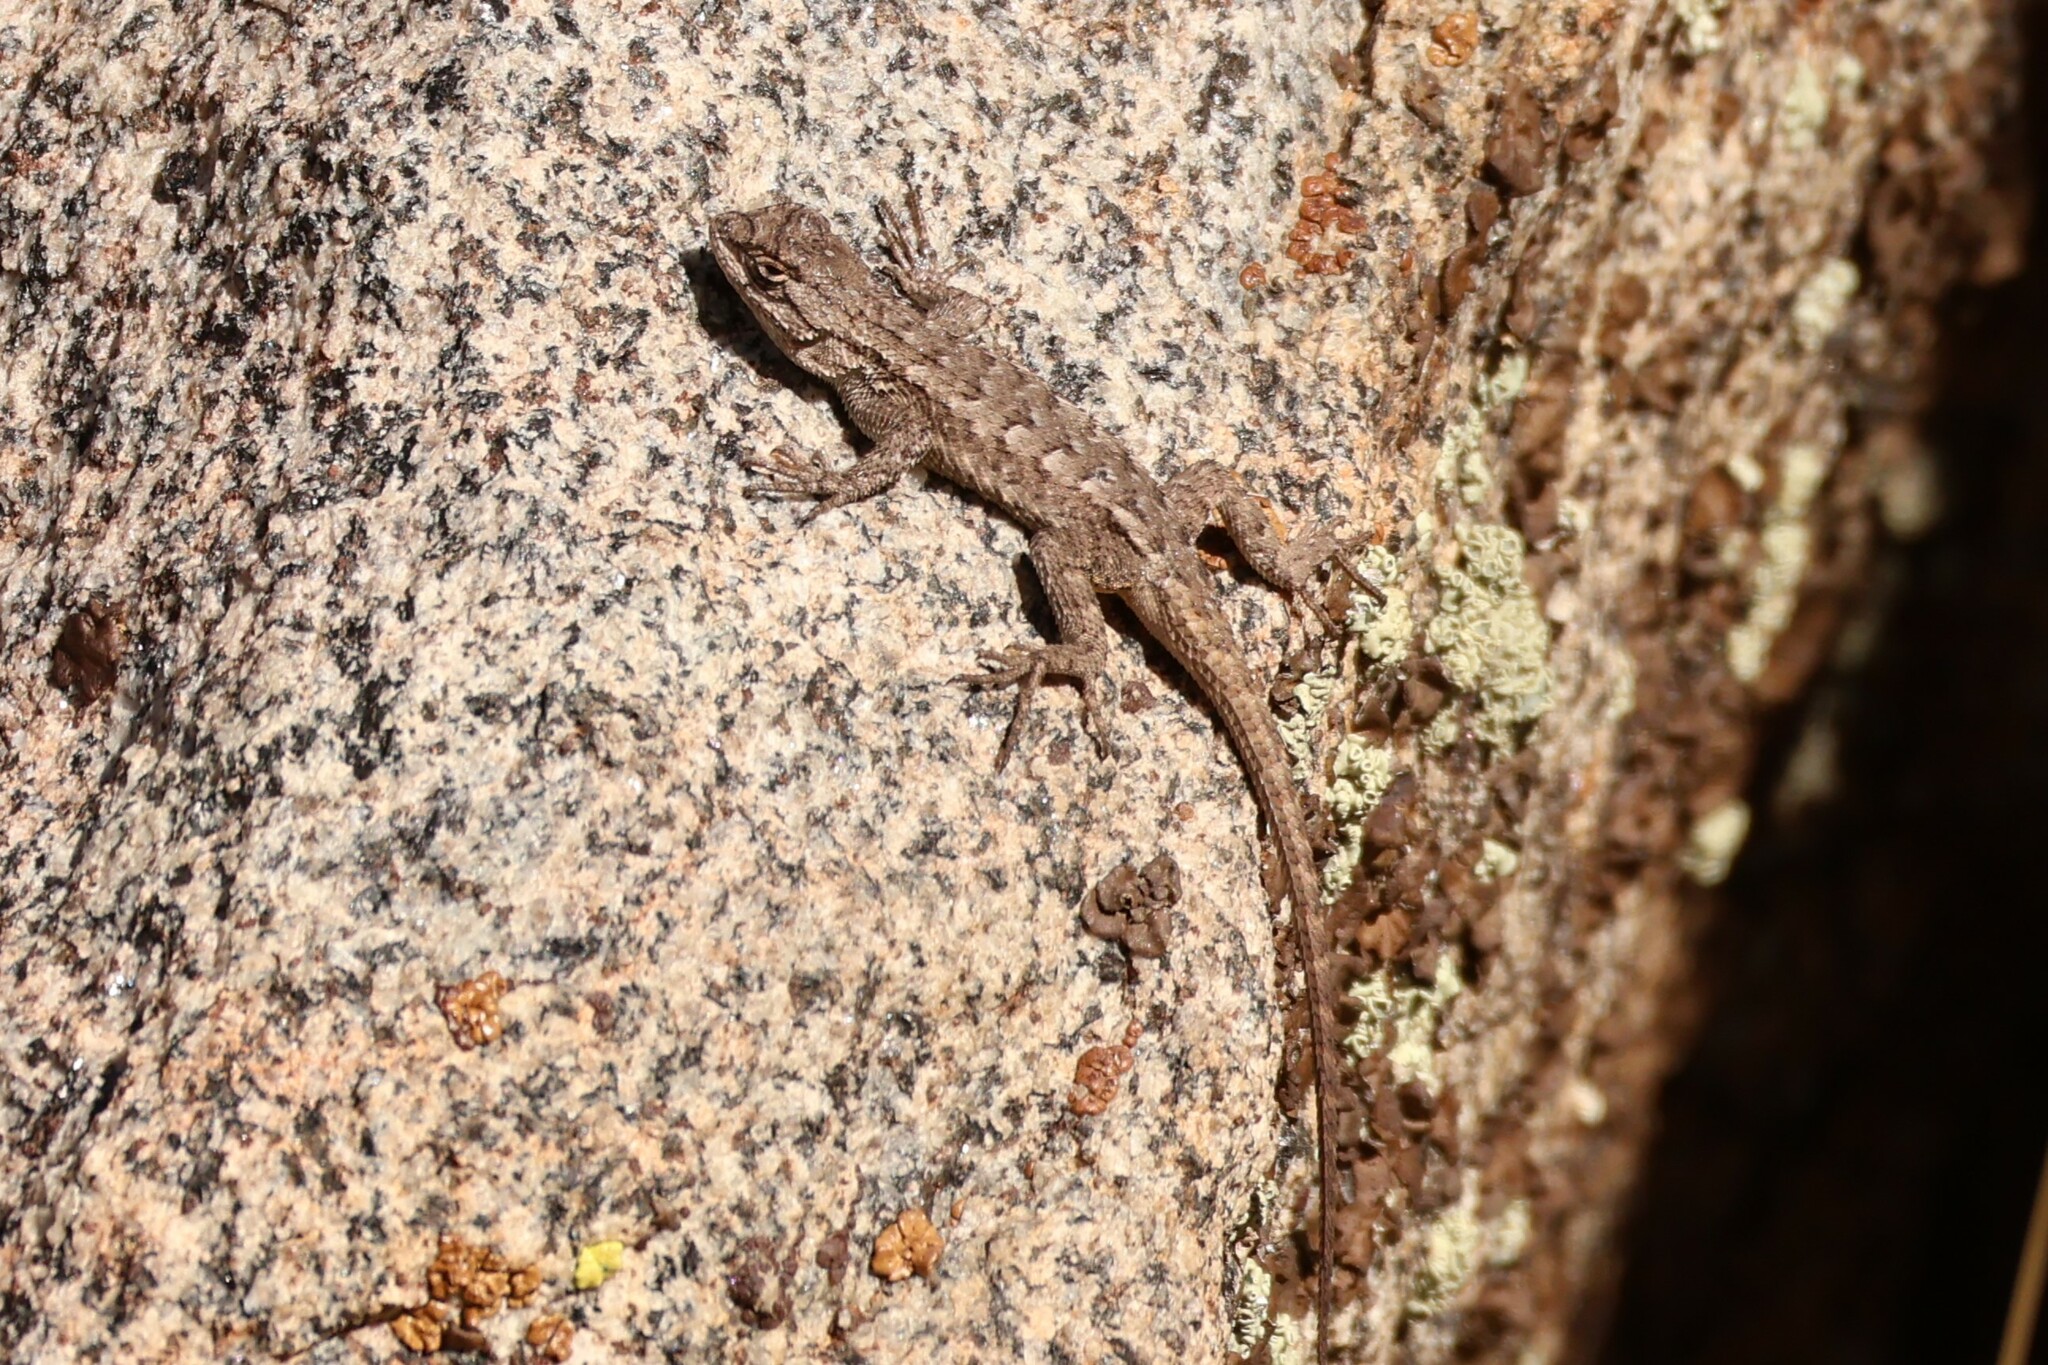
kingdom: Animalia
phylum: Chordata
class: Squamata
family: Phrynosomatidae
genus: Sceloporus
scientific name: Sceloporus occidentalis
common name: Western fence lizard
